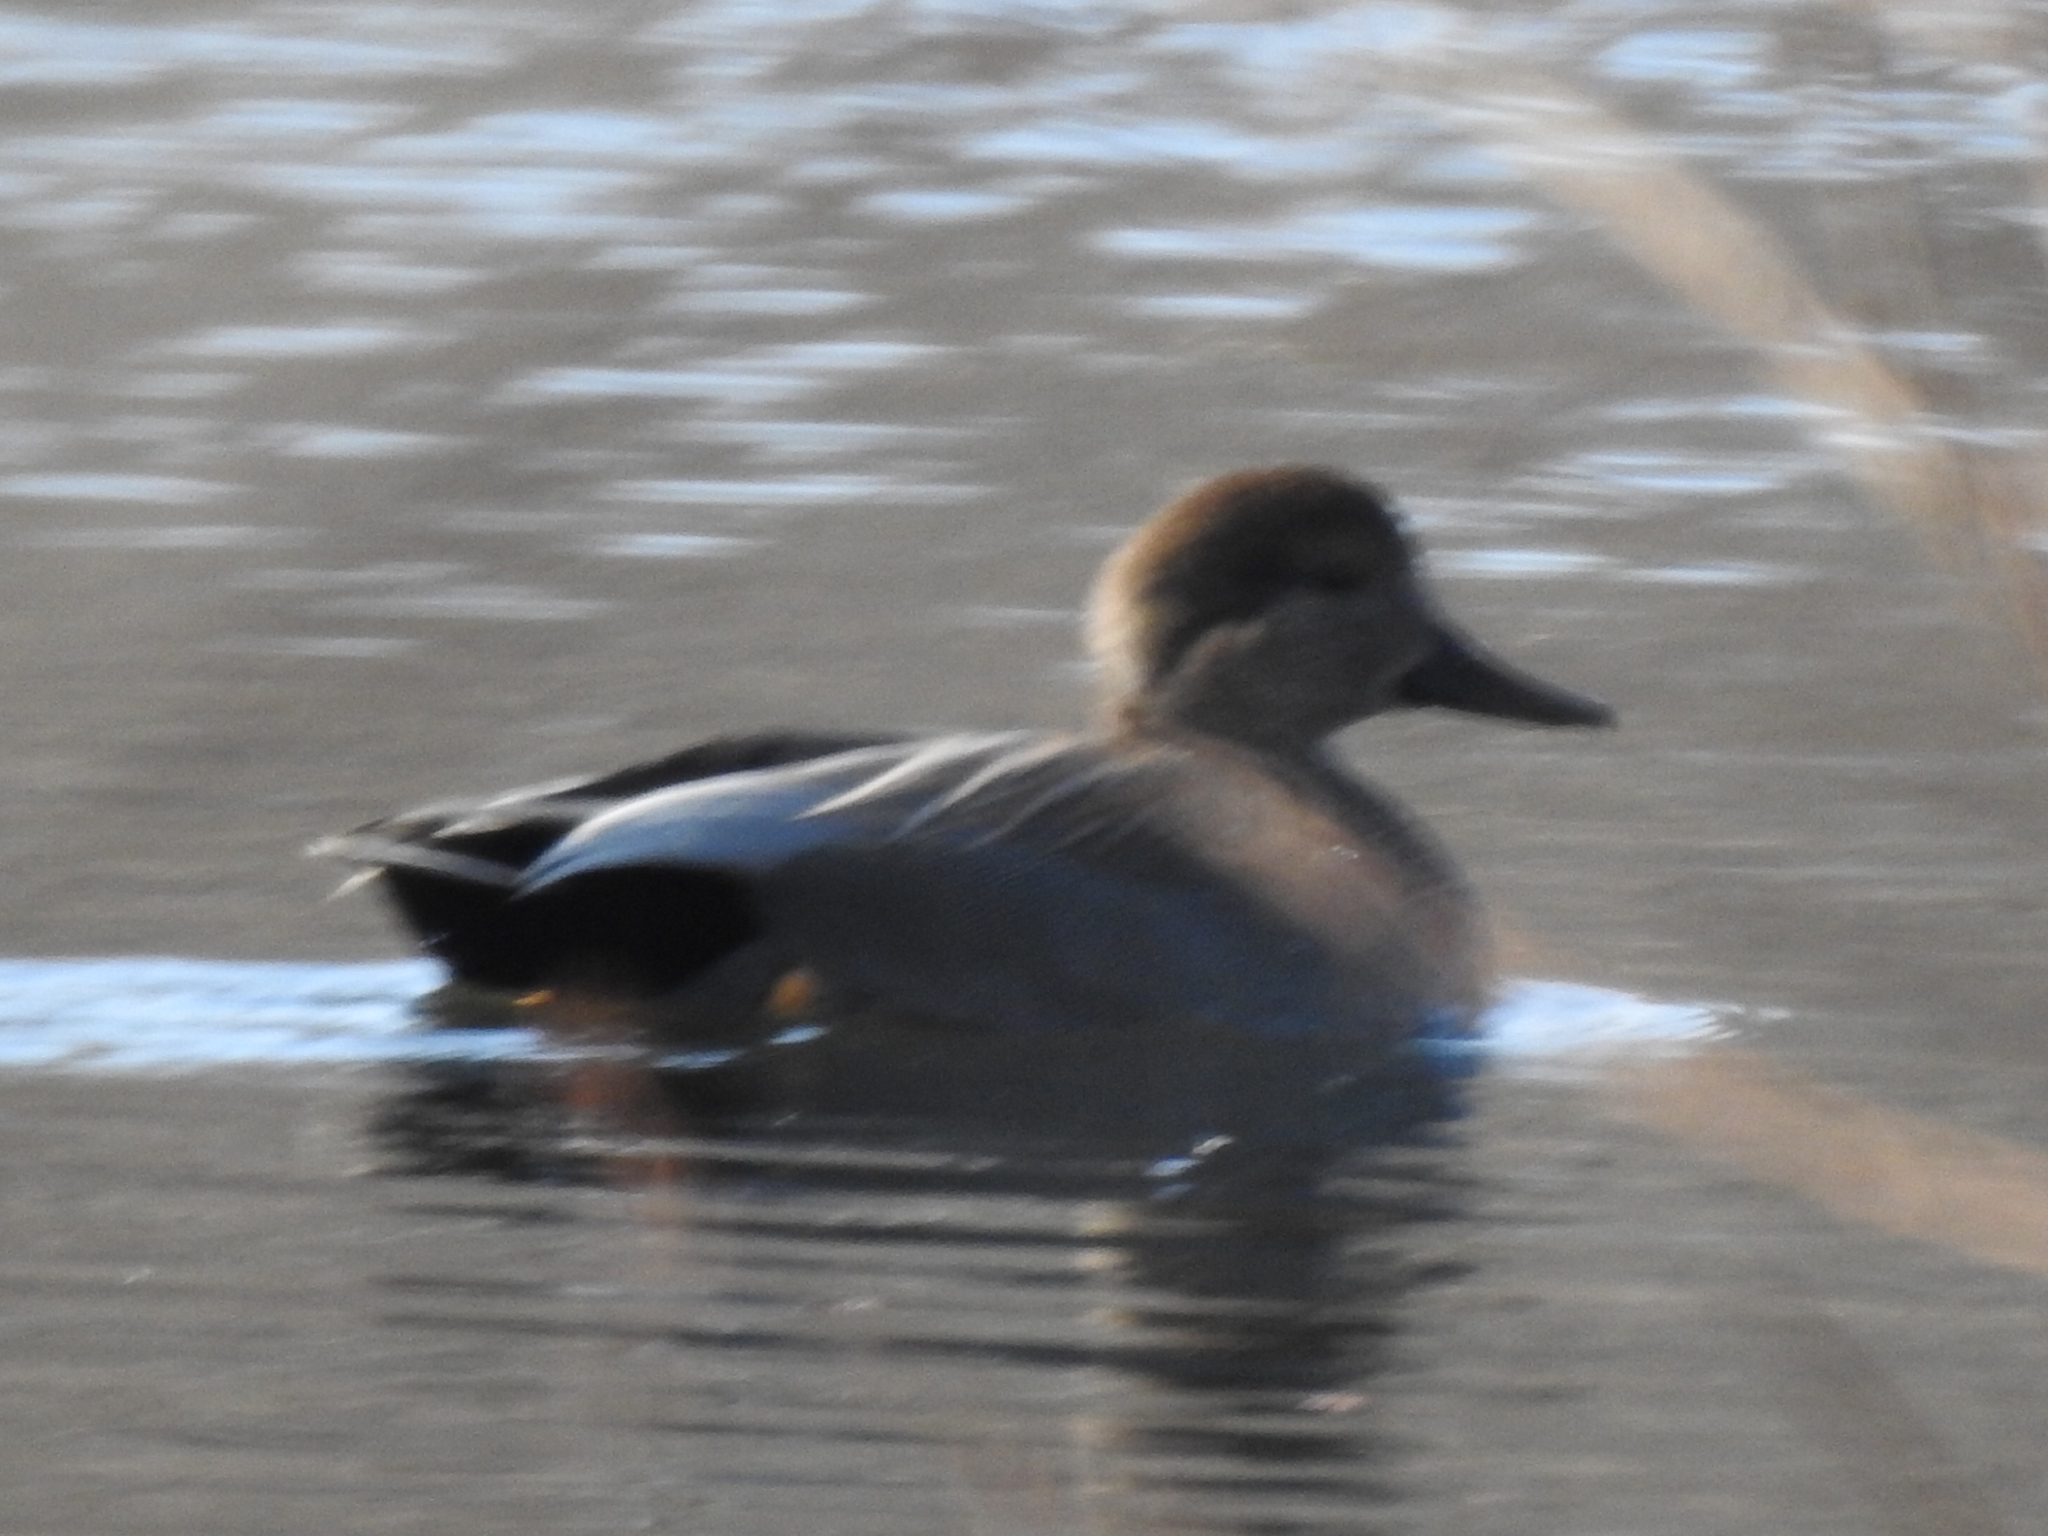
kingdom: Animalia
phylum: Chordata
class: Aves
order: Anseriformes
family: Anatidae
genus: Mareca
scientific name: Mareca strepera
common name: Gadwall
